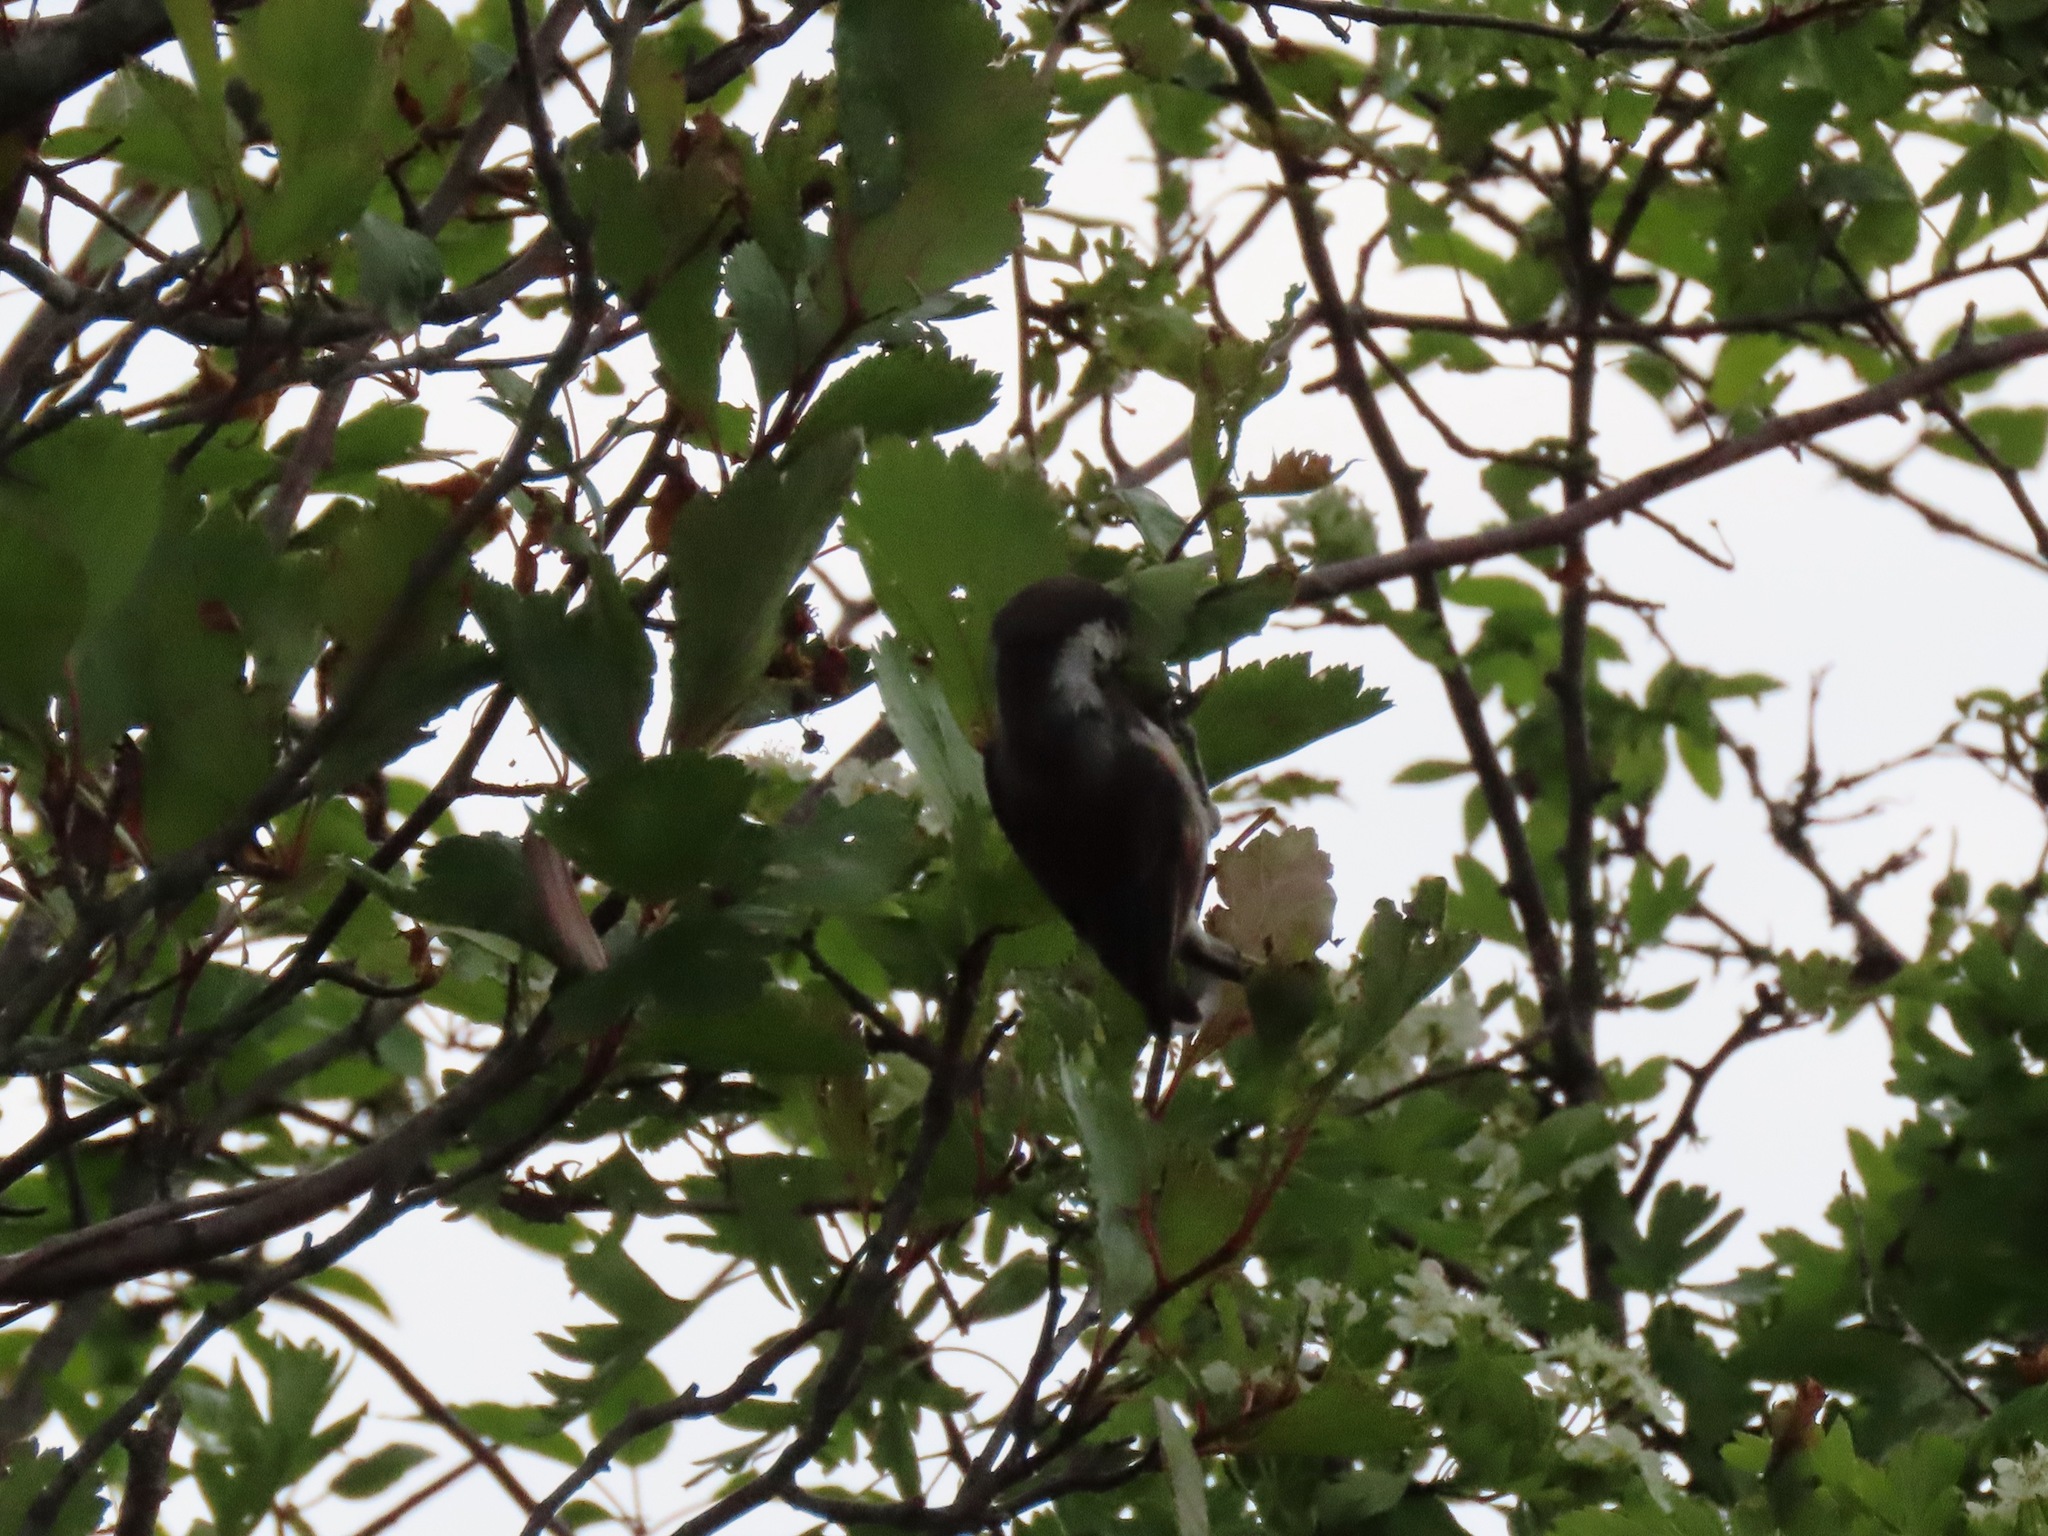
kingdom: Animalia
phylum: Chordata
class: Aves
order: Passeriformes
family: Paridae
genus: Poecile
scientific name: Poecile rufescens
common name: Chestnut-backed chickadee
